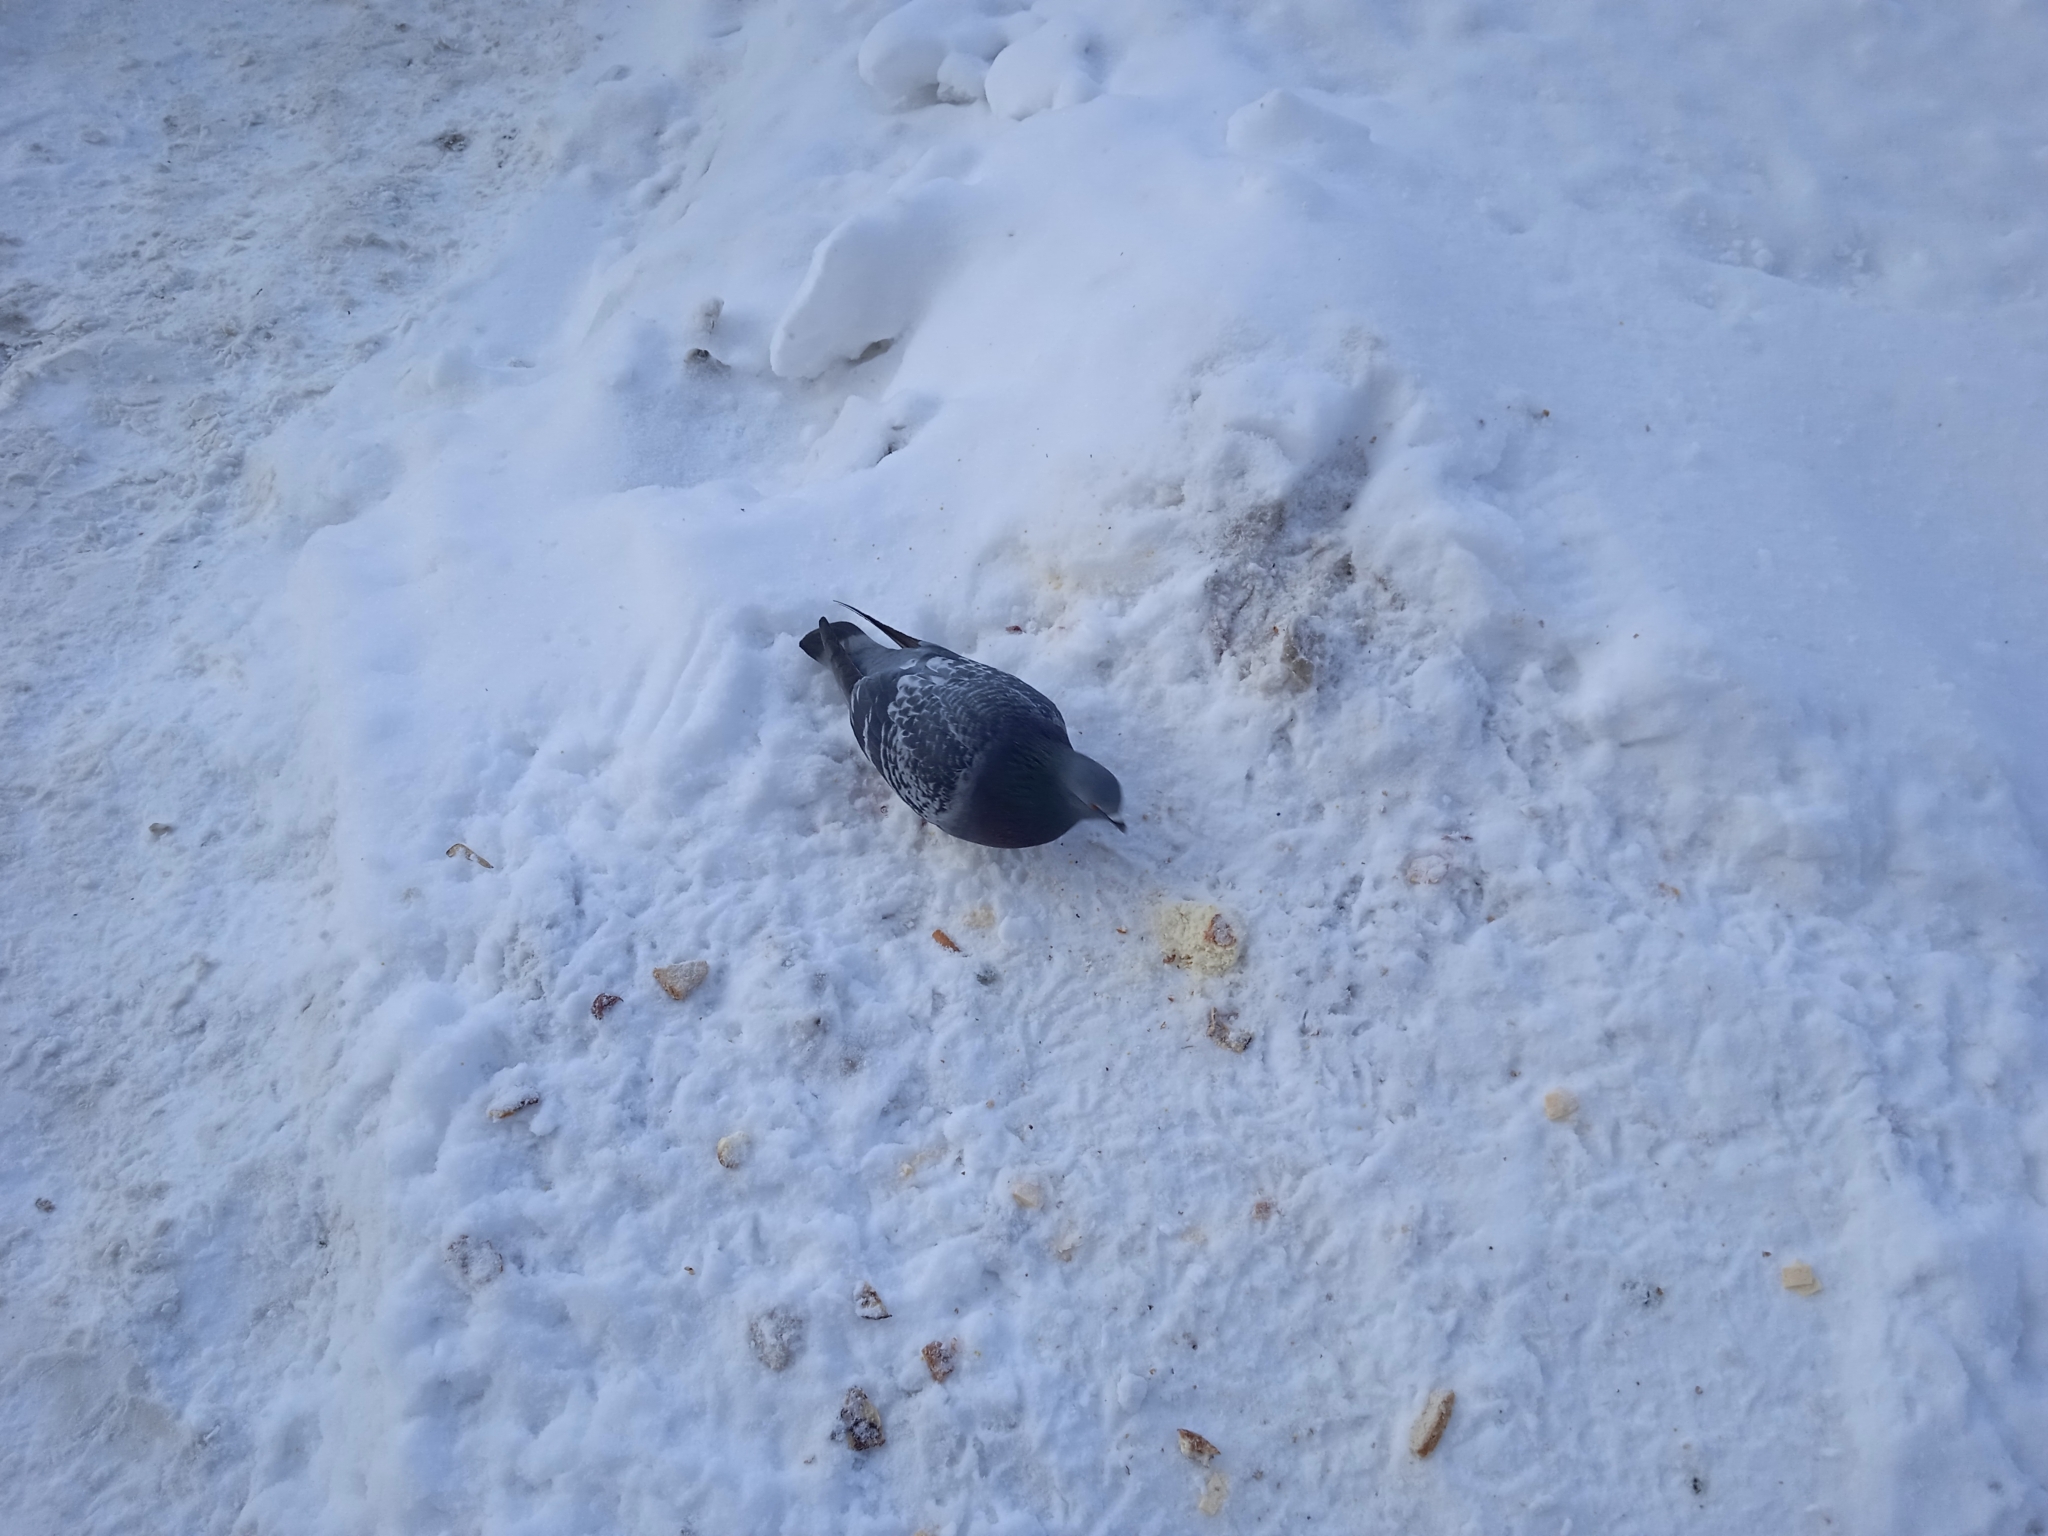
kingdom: Animalia
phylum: Chordata
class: Aves
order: Columbiformes
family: Columbidae
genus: Columba
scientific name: Columba livia
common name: Rock pigeon
